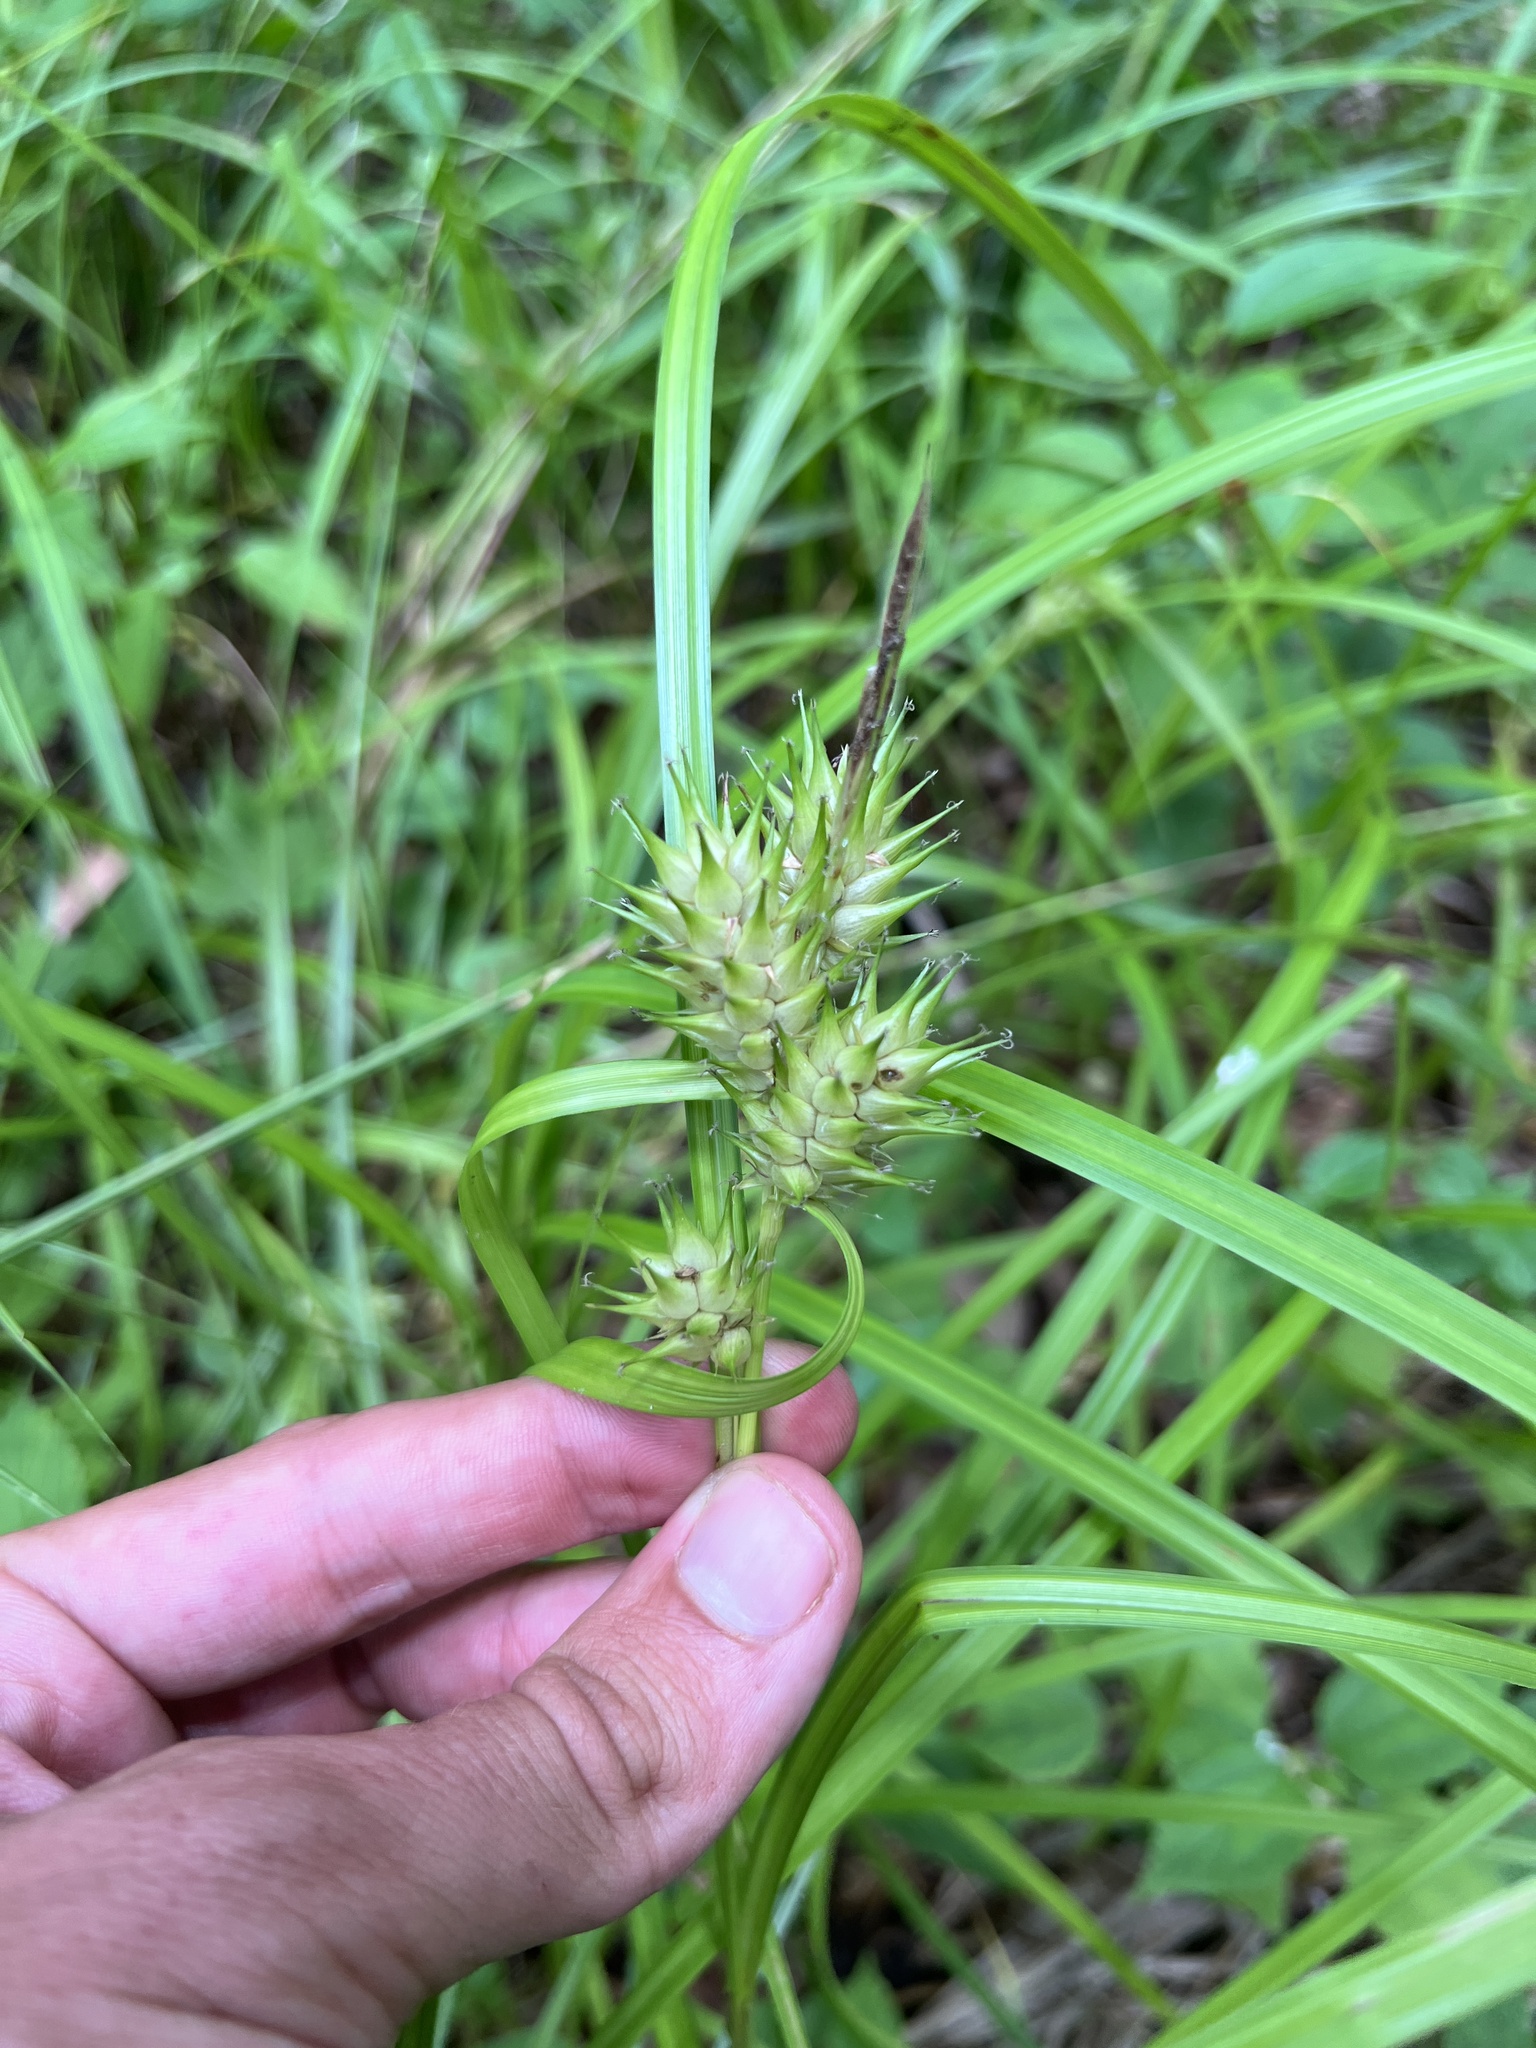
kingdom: Plantae
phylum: Tracheophyta
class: Liliopsida
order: Poales
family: Cyperaceae
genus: Carex
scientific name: Carex lupulina
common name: Hop sedge
